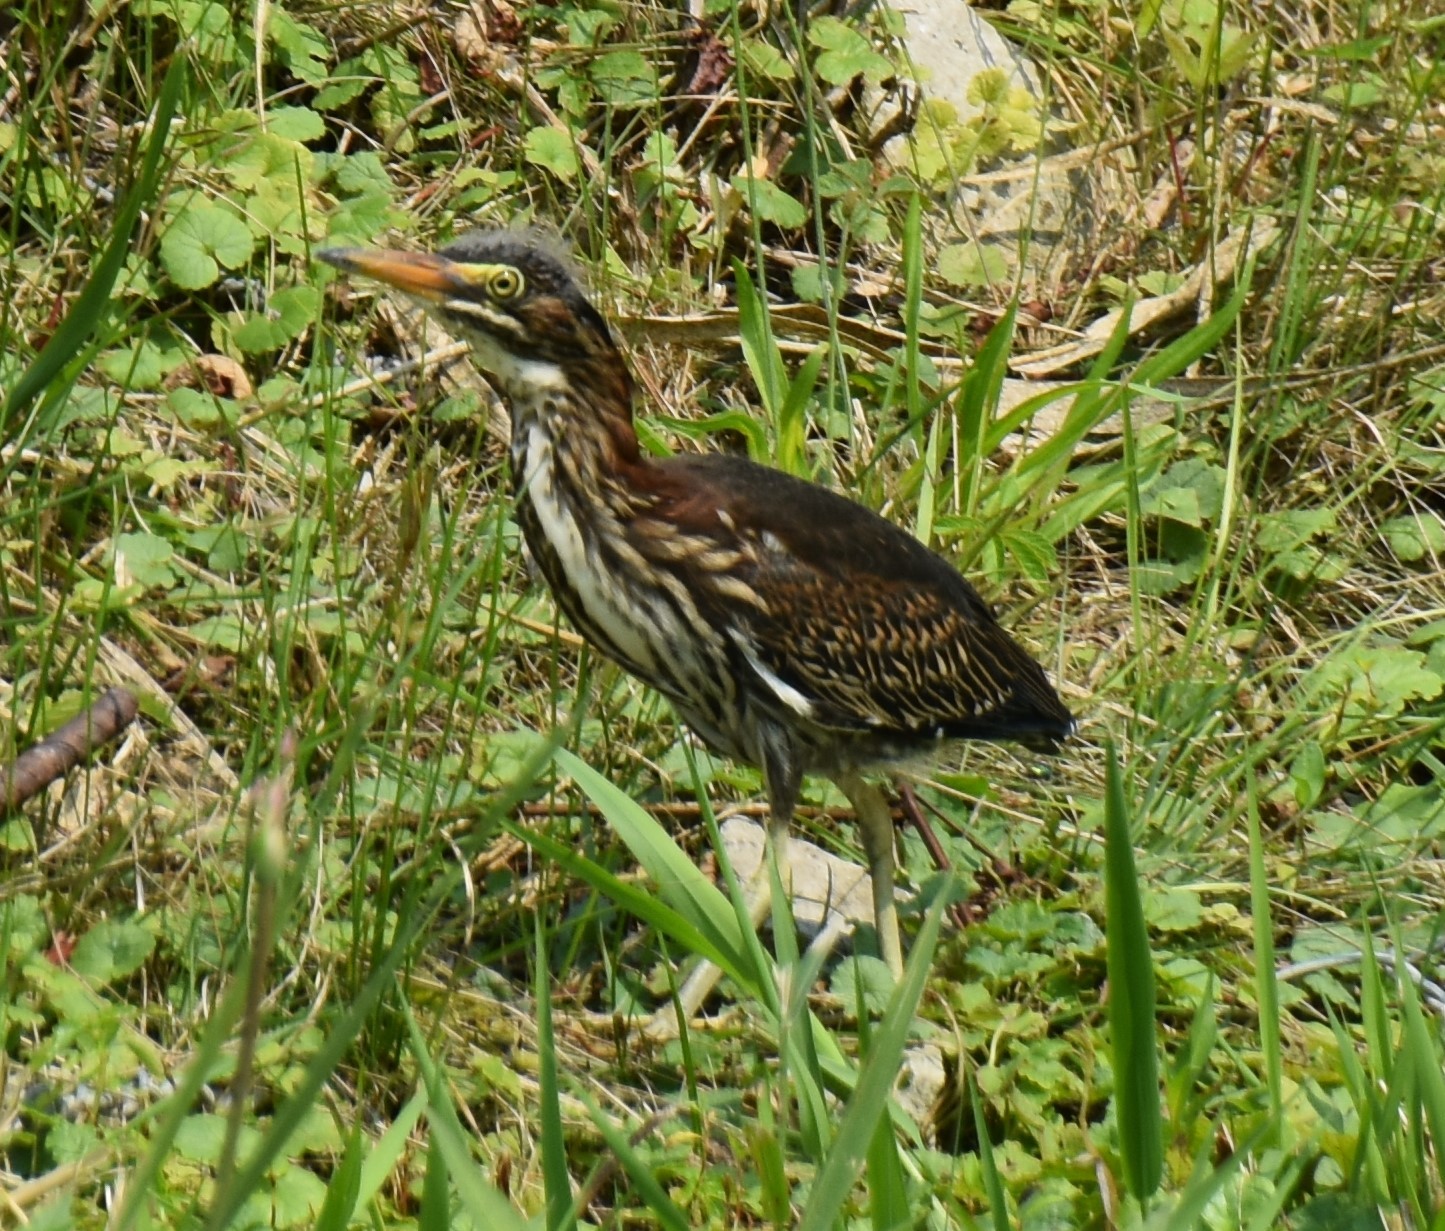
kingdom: Animalia
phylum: Chordata
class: Aves
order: Pelecaniformes
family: Ardeidae
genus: Butorides
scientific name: Butorides virescens
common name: Green heron
